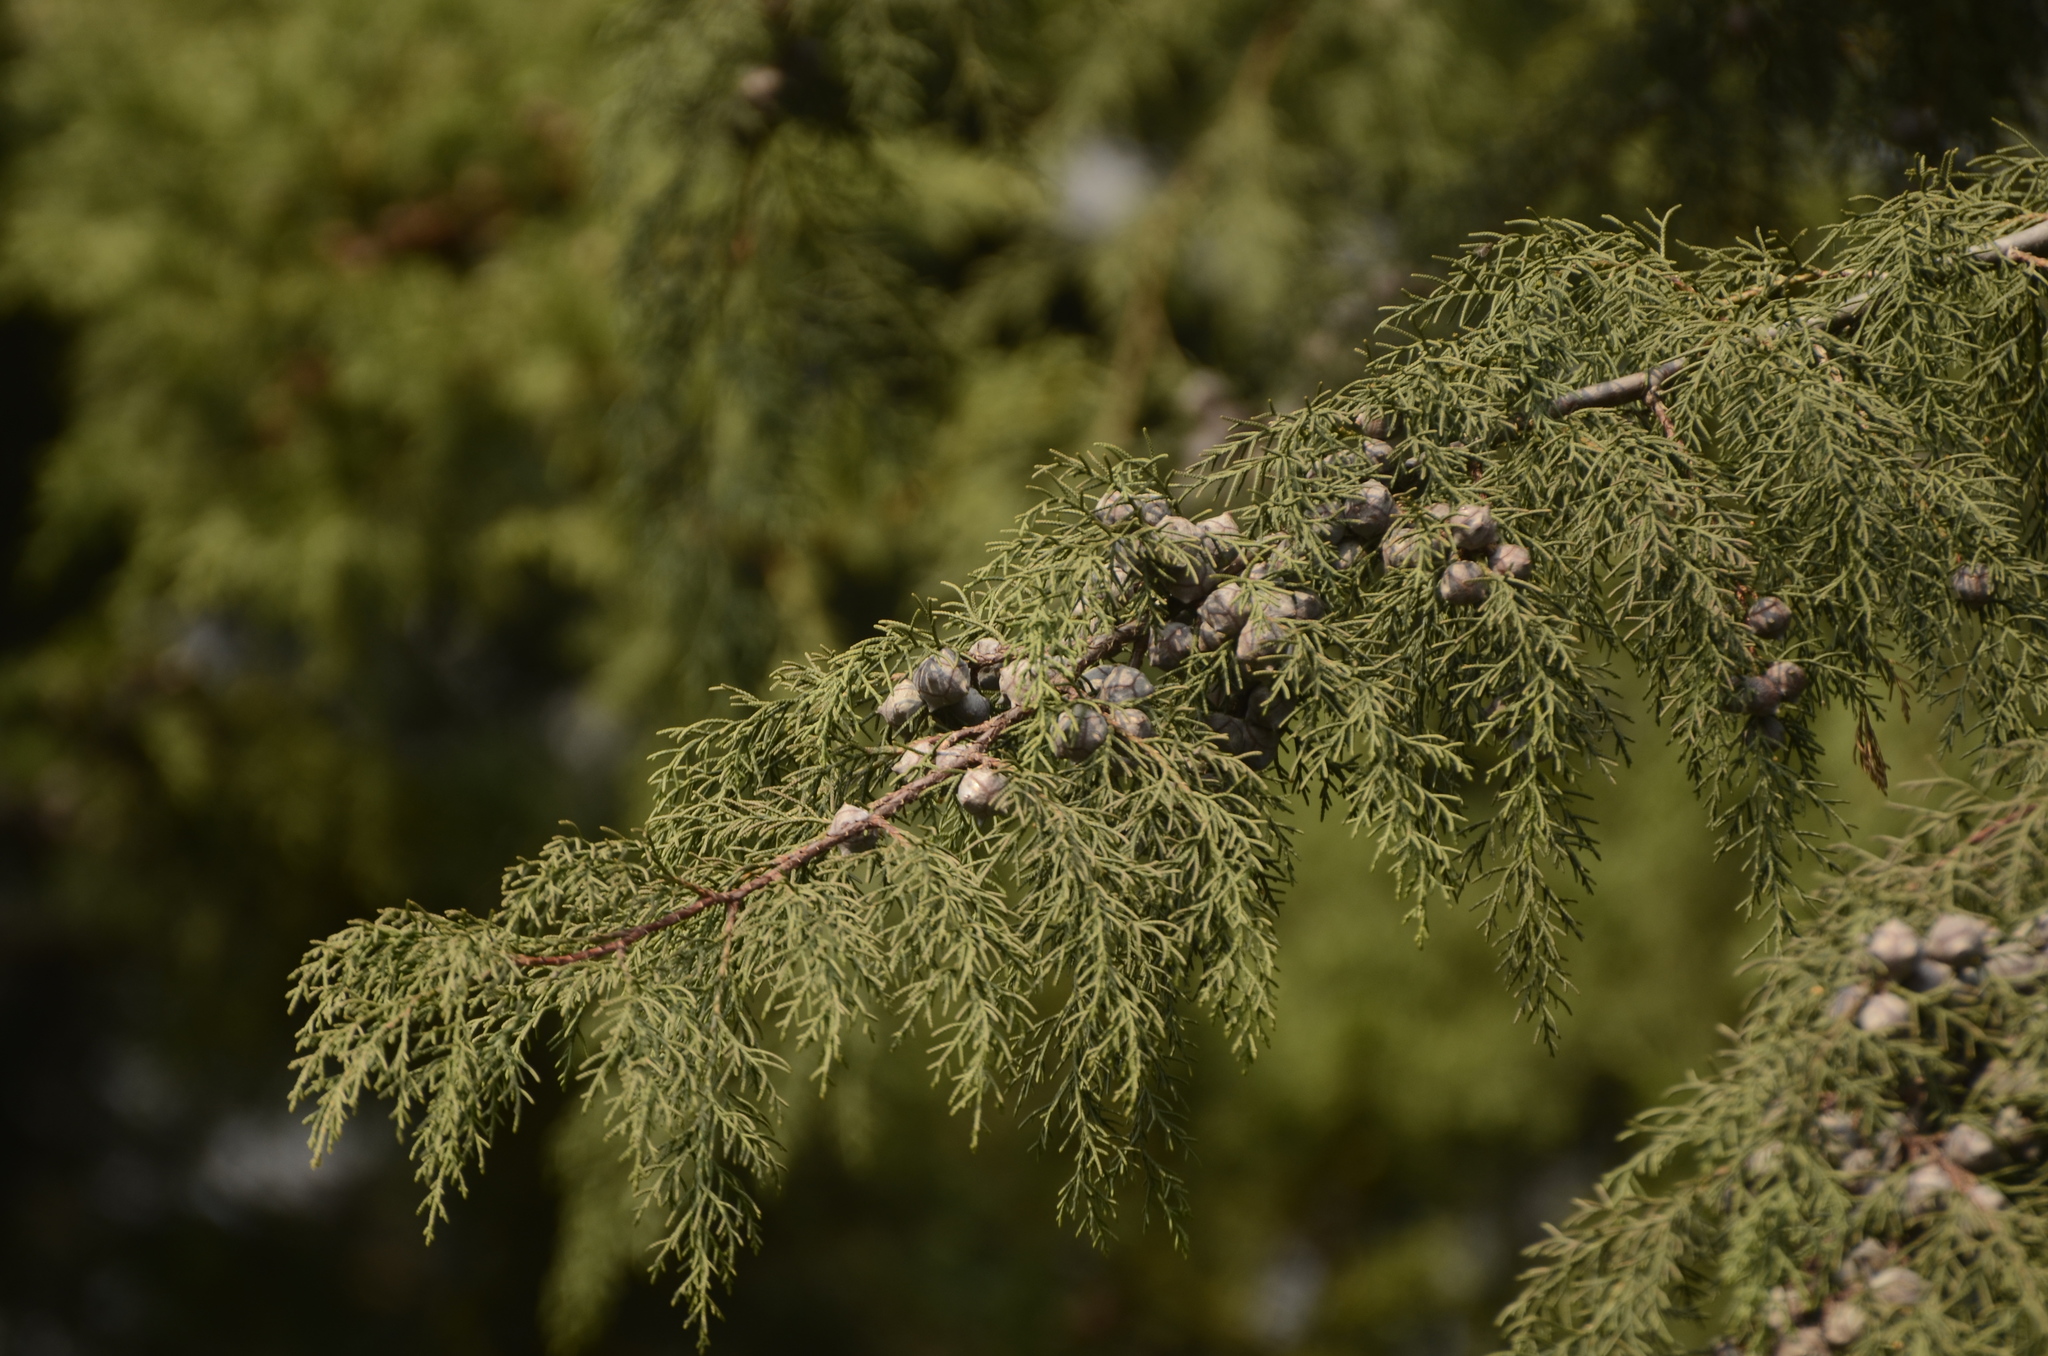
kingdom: Plantae
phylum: Tracheophyta
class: Pinopsida
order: Pinales
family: Cupressaceae
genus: Cupressus
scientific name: Cupressus torulosa
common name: Himalayan cypress
